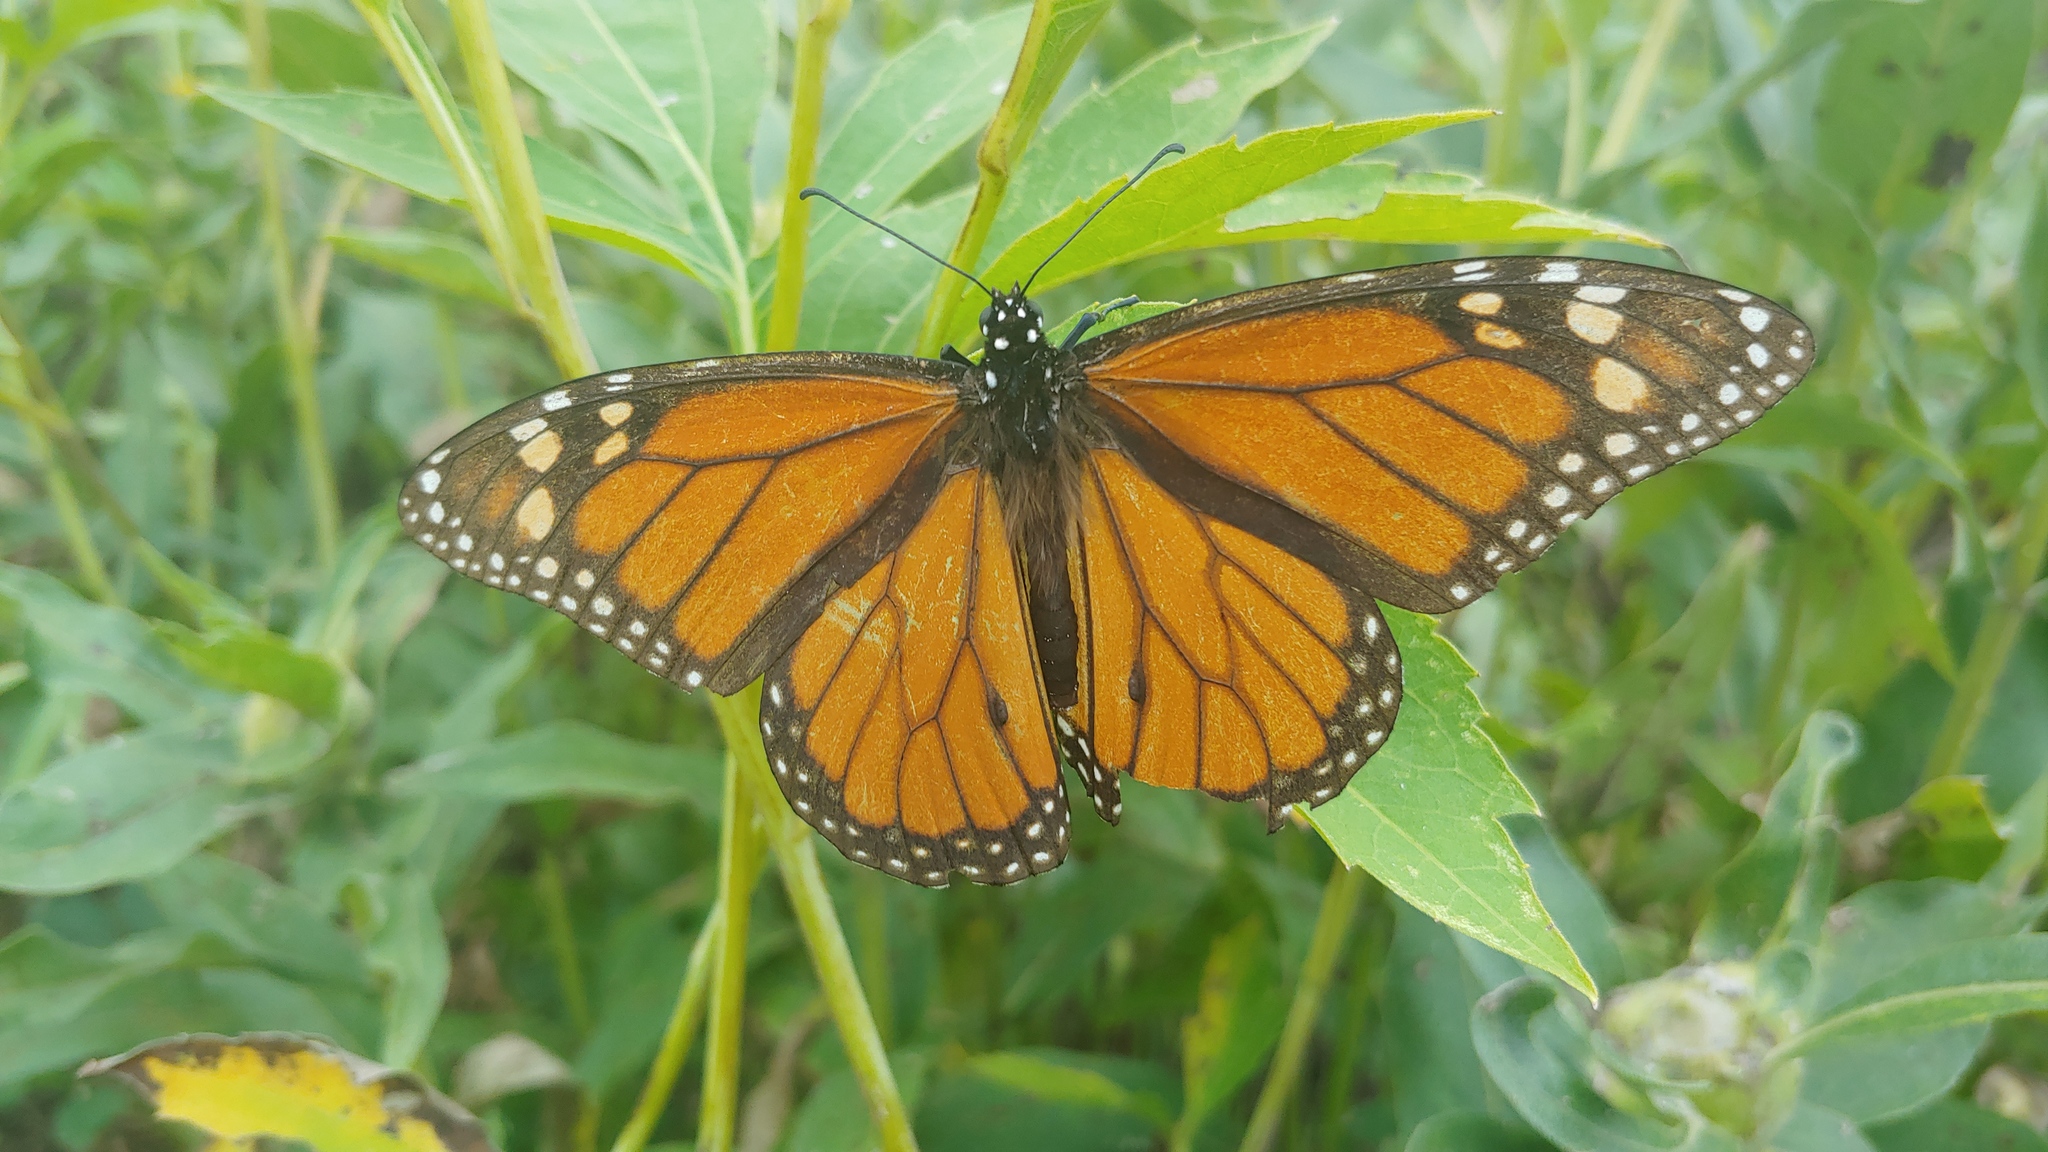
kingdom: Animalia
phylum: Arthropoda
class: Insecta
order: Lepidoptera
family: Nymphalidae
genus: Danaus
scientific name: Danaus plexippus
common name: Monarch
